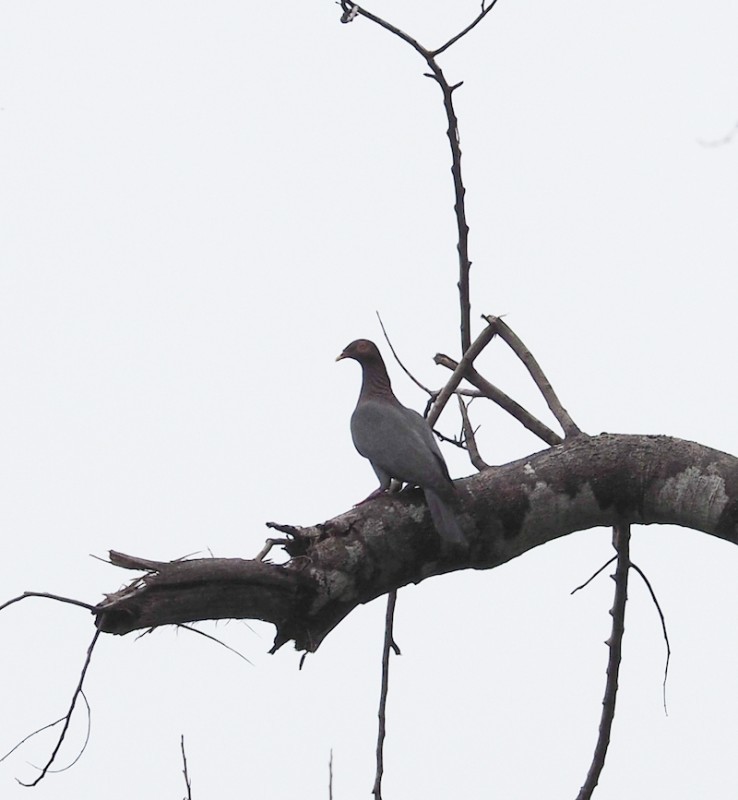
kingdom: Animalia
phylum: Chordata
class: Aves
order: Columbiformes
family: Columbidae
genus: Patagioenas
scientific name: Patagioenas squamosa
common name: Scaly-naped pigeon
